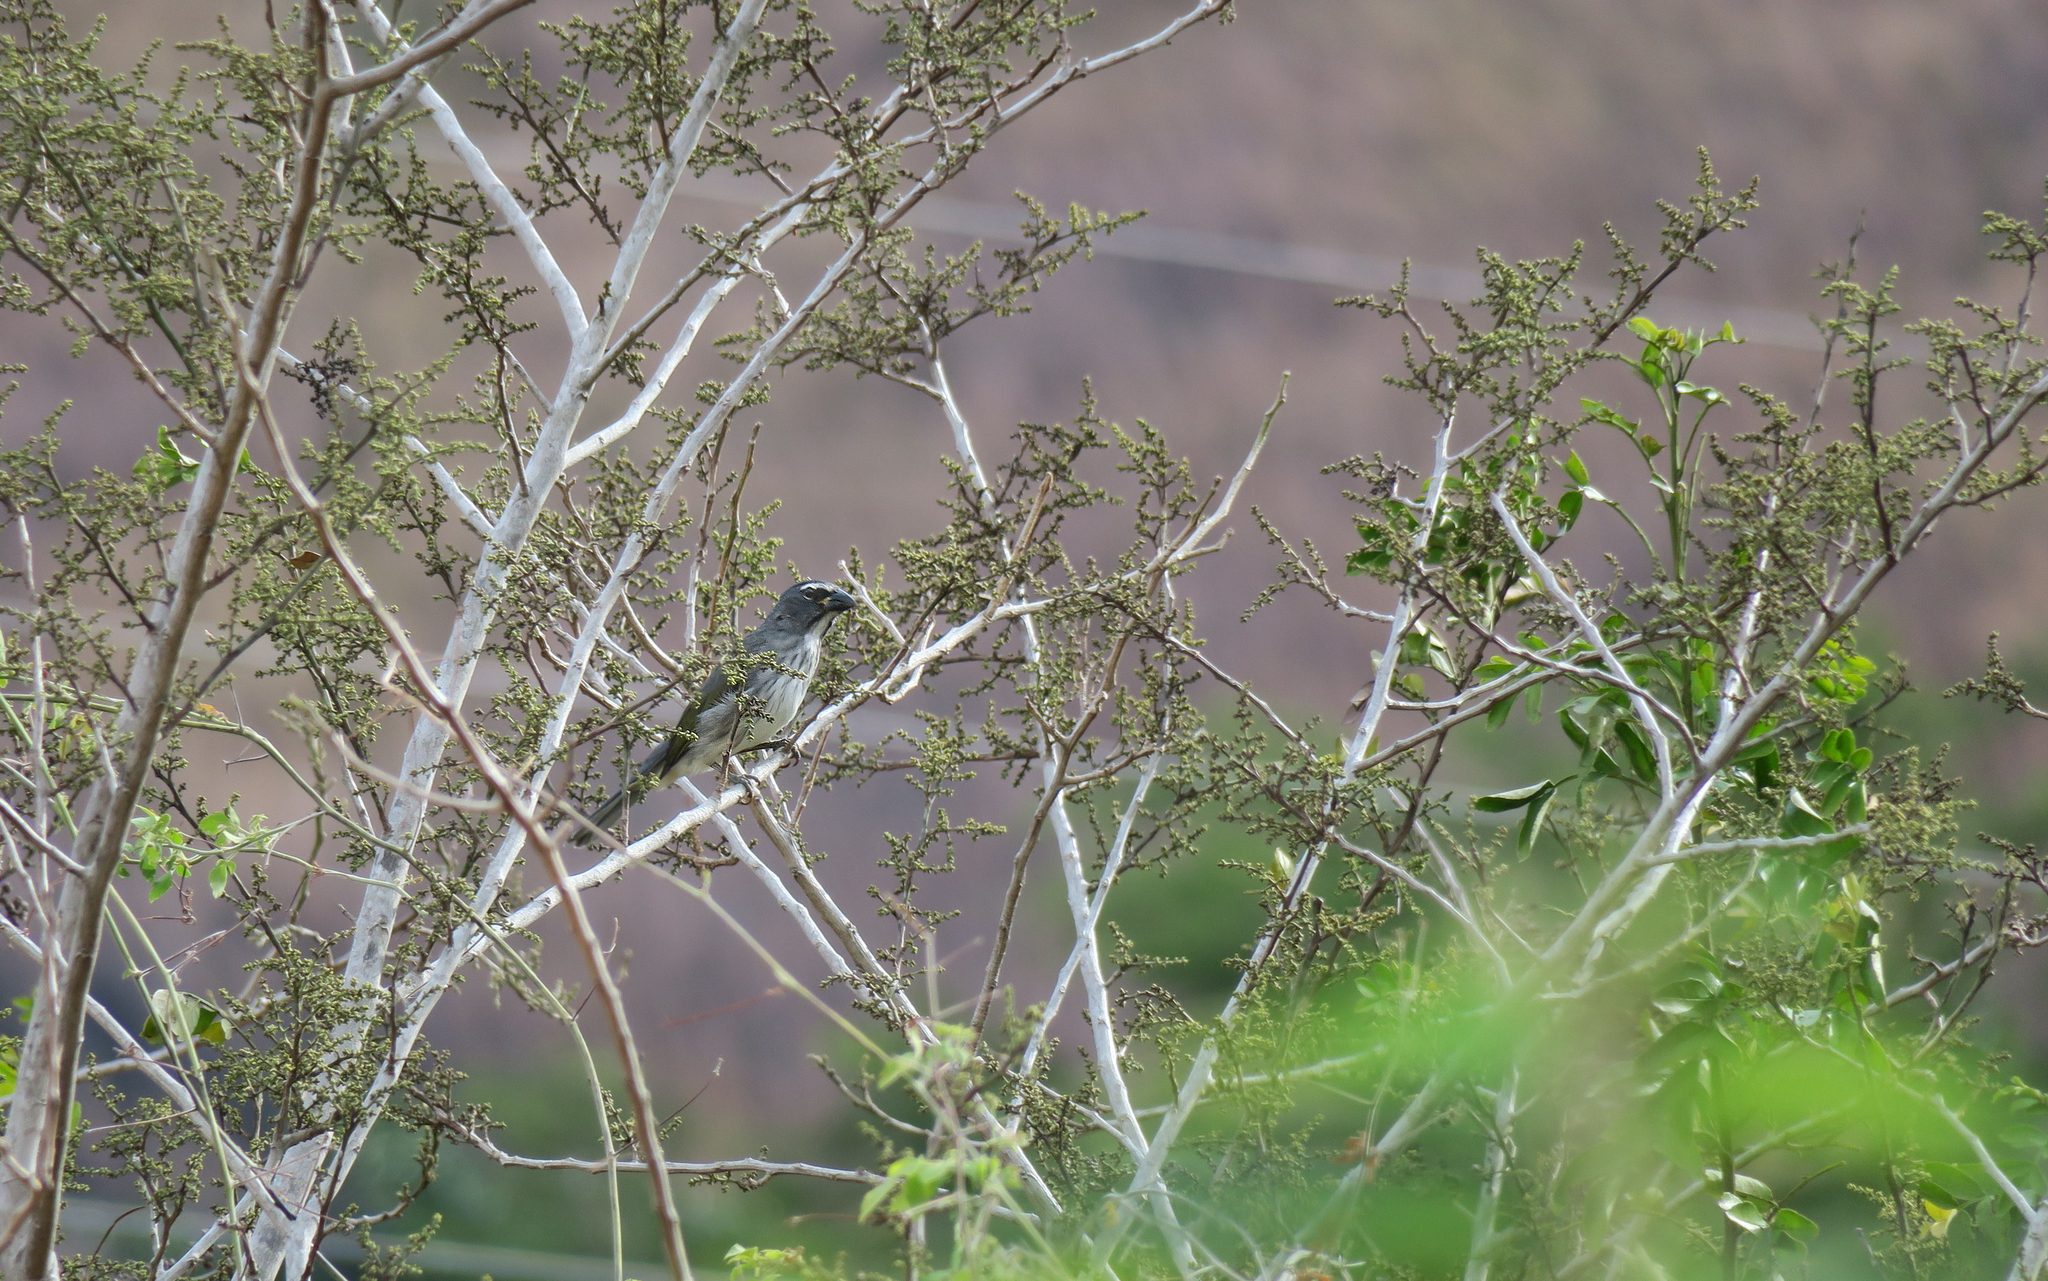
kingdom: Animalia
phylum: Chordata
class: Aves
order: Passeriformes
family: Thraupidae
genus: Saltator
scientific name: Saltator striatipectus
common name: Streaked saltator
